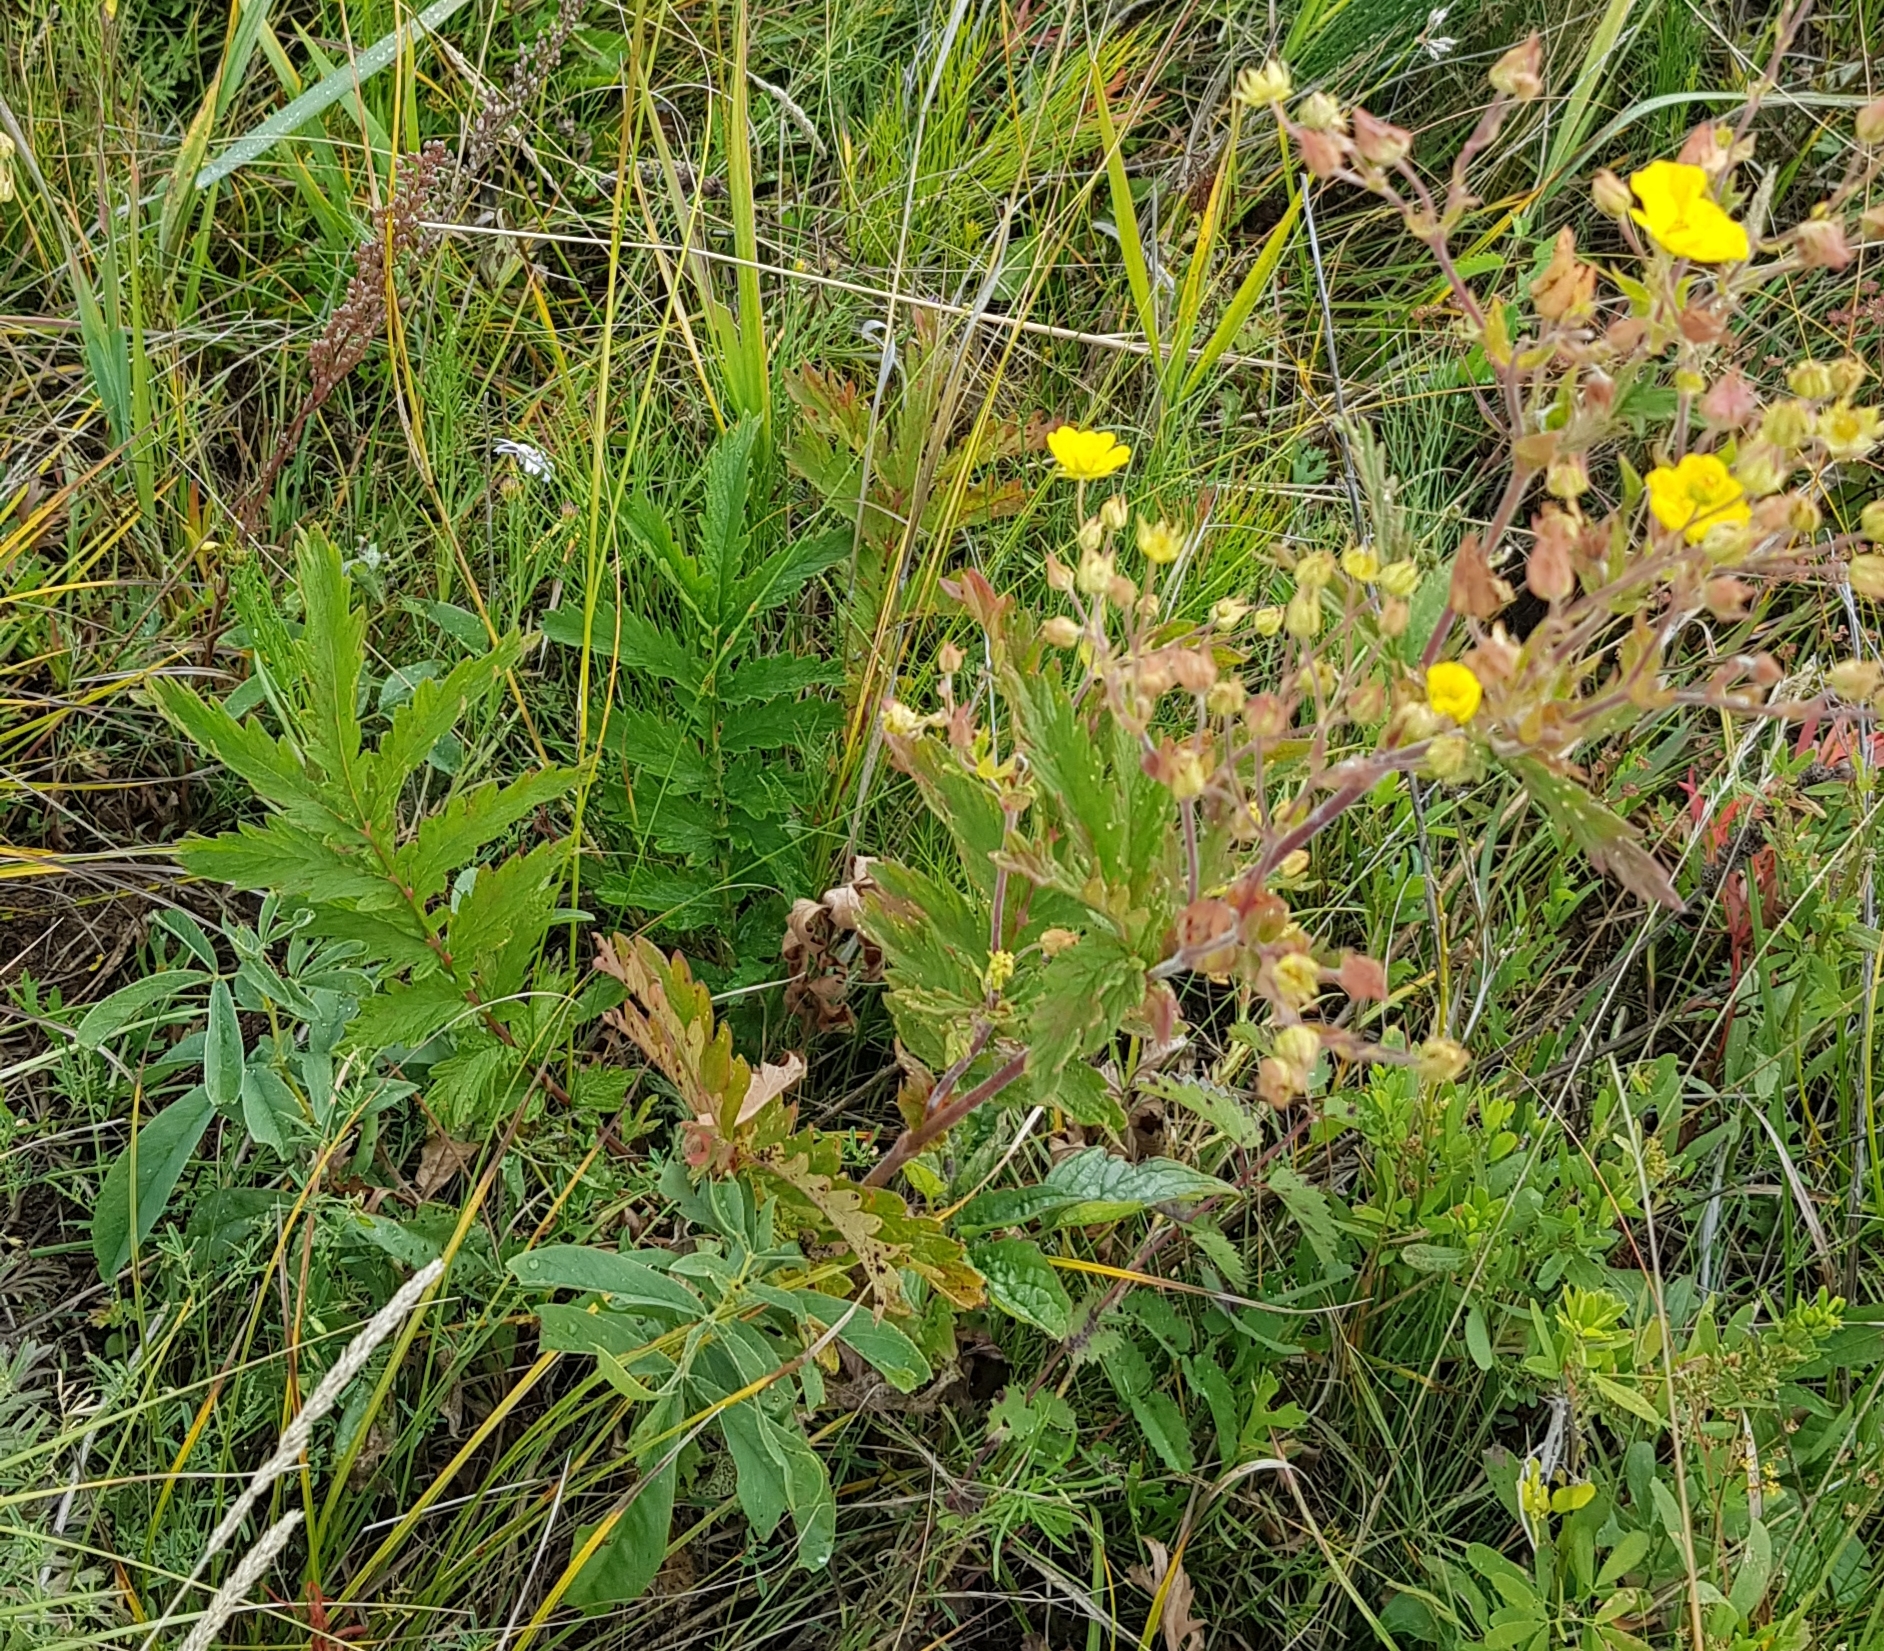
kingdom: Plantae
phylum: Tracheophyta
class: Magnoliopsida
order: Rosales
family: Rosaceae
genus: Potentilla
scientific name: Potentilla tanacetifolia
